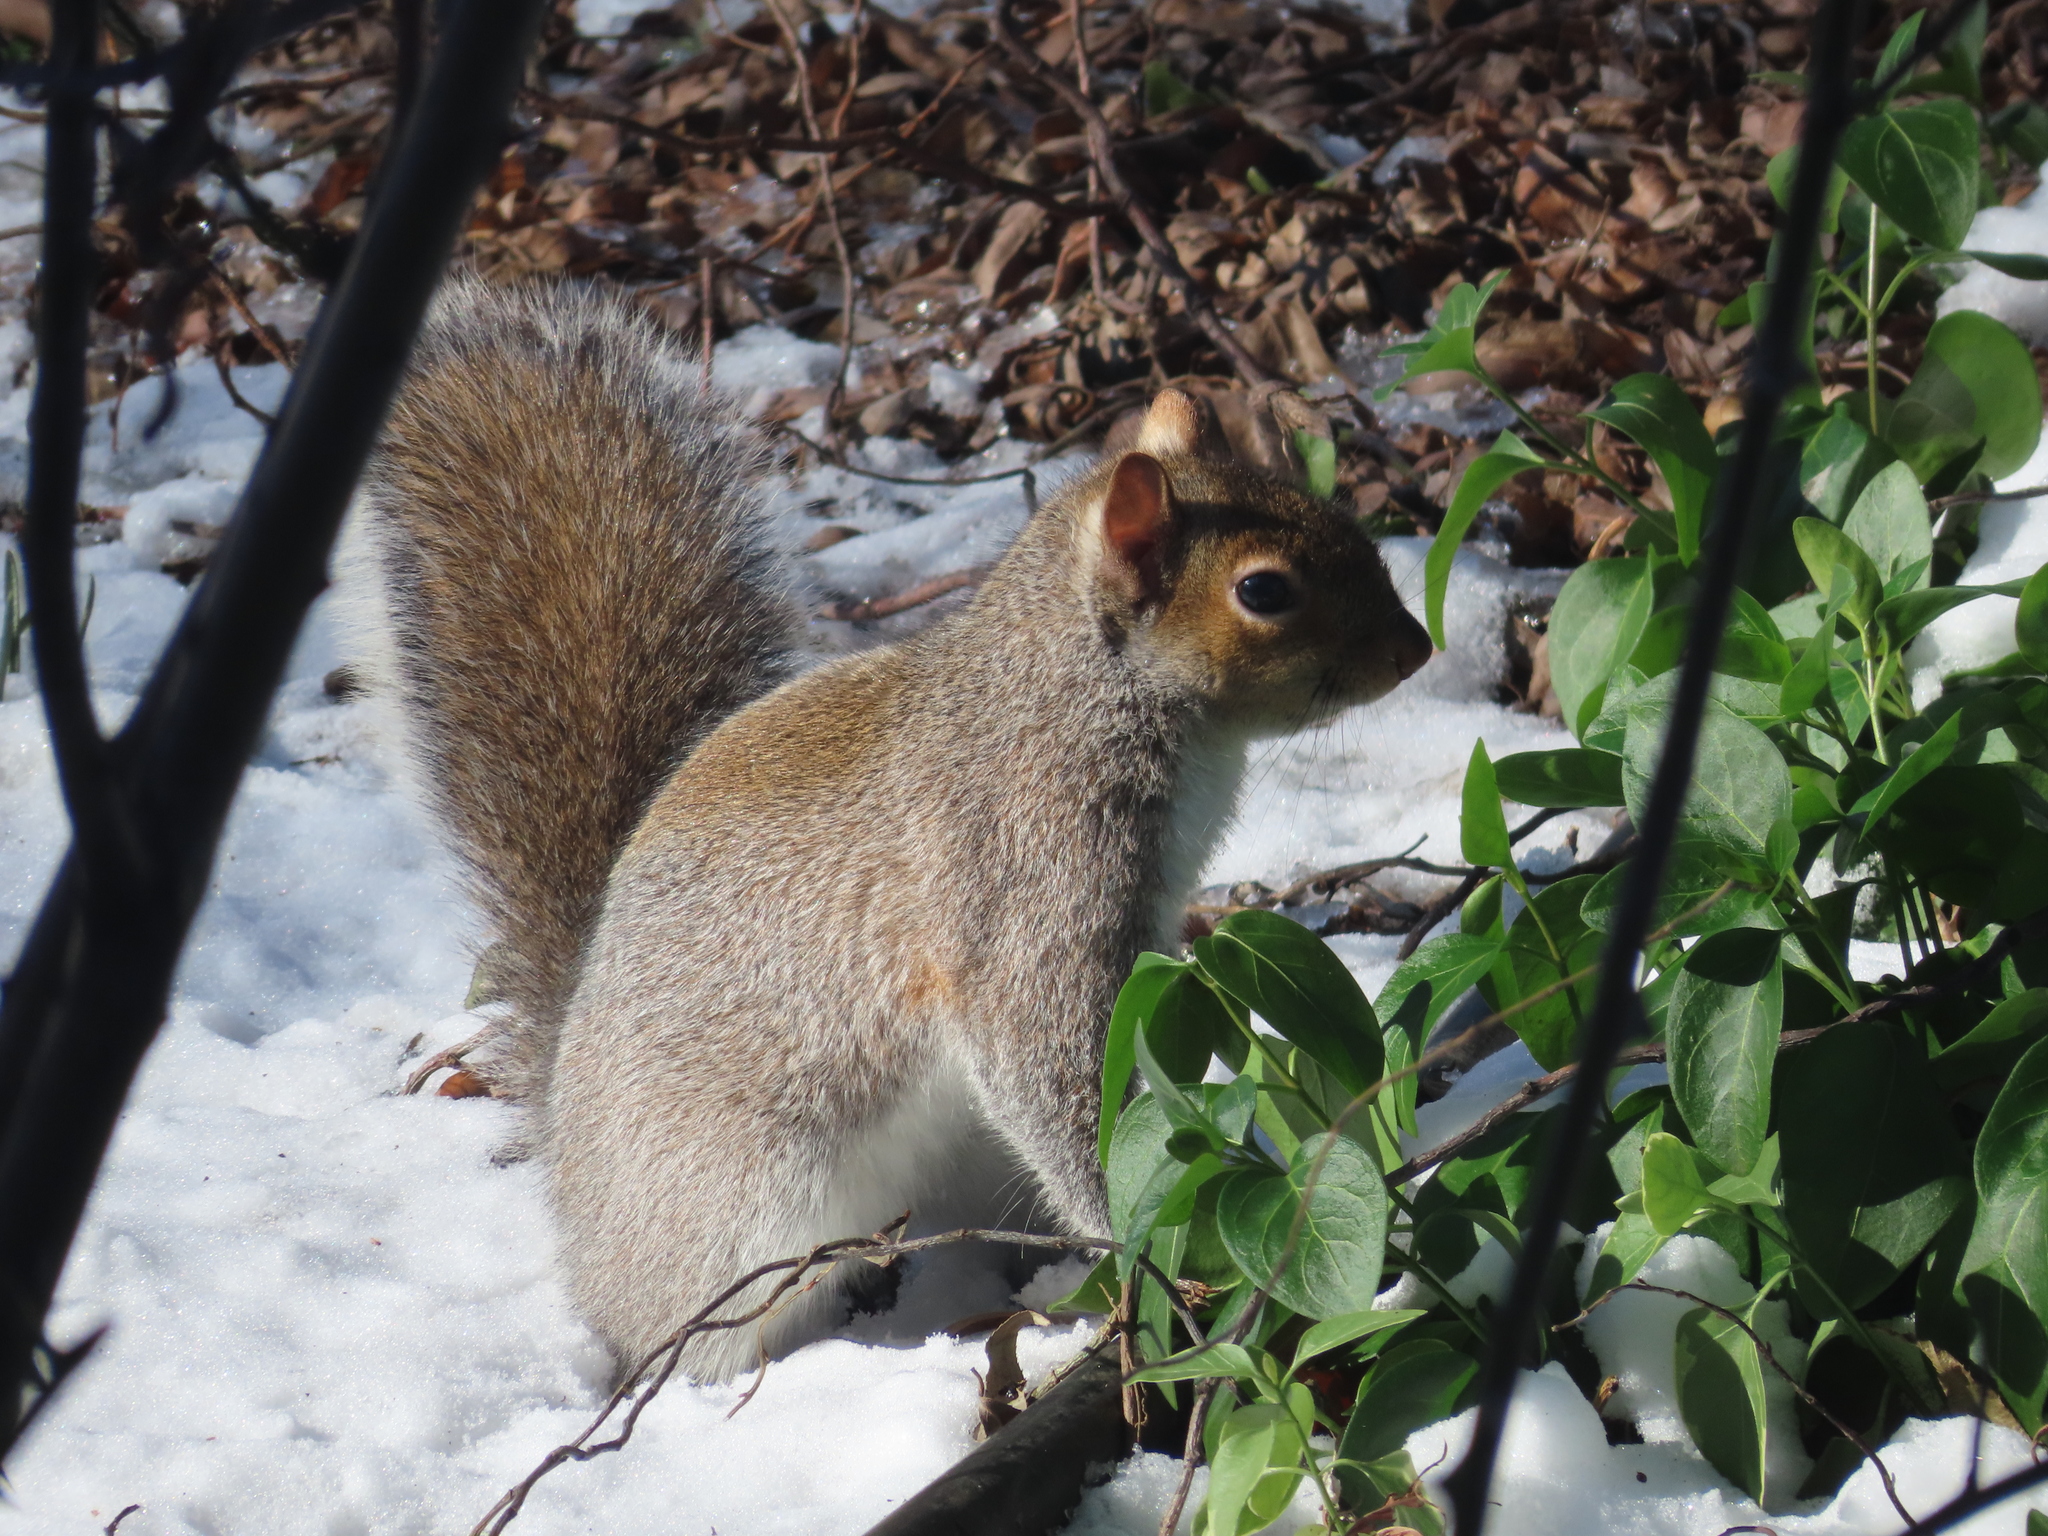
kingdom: Animalia
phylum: Chordata
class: Mammalia
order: Rodentia
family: Sciuridae
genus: Sciurus
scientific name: Sciurus carolinensis
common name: Eastern gray squirrel
